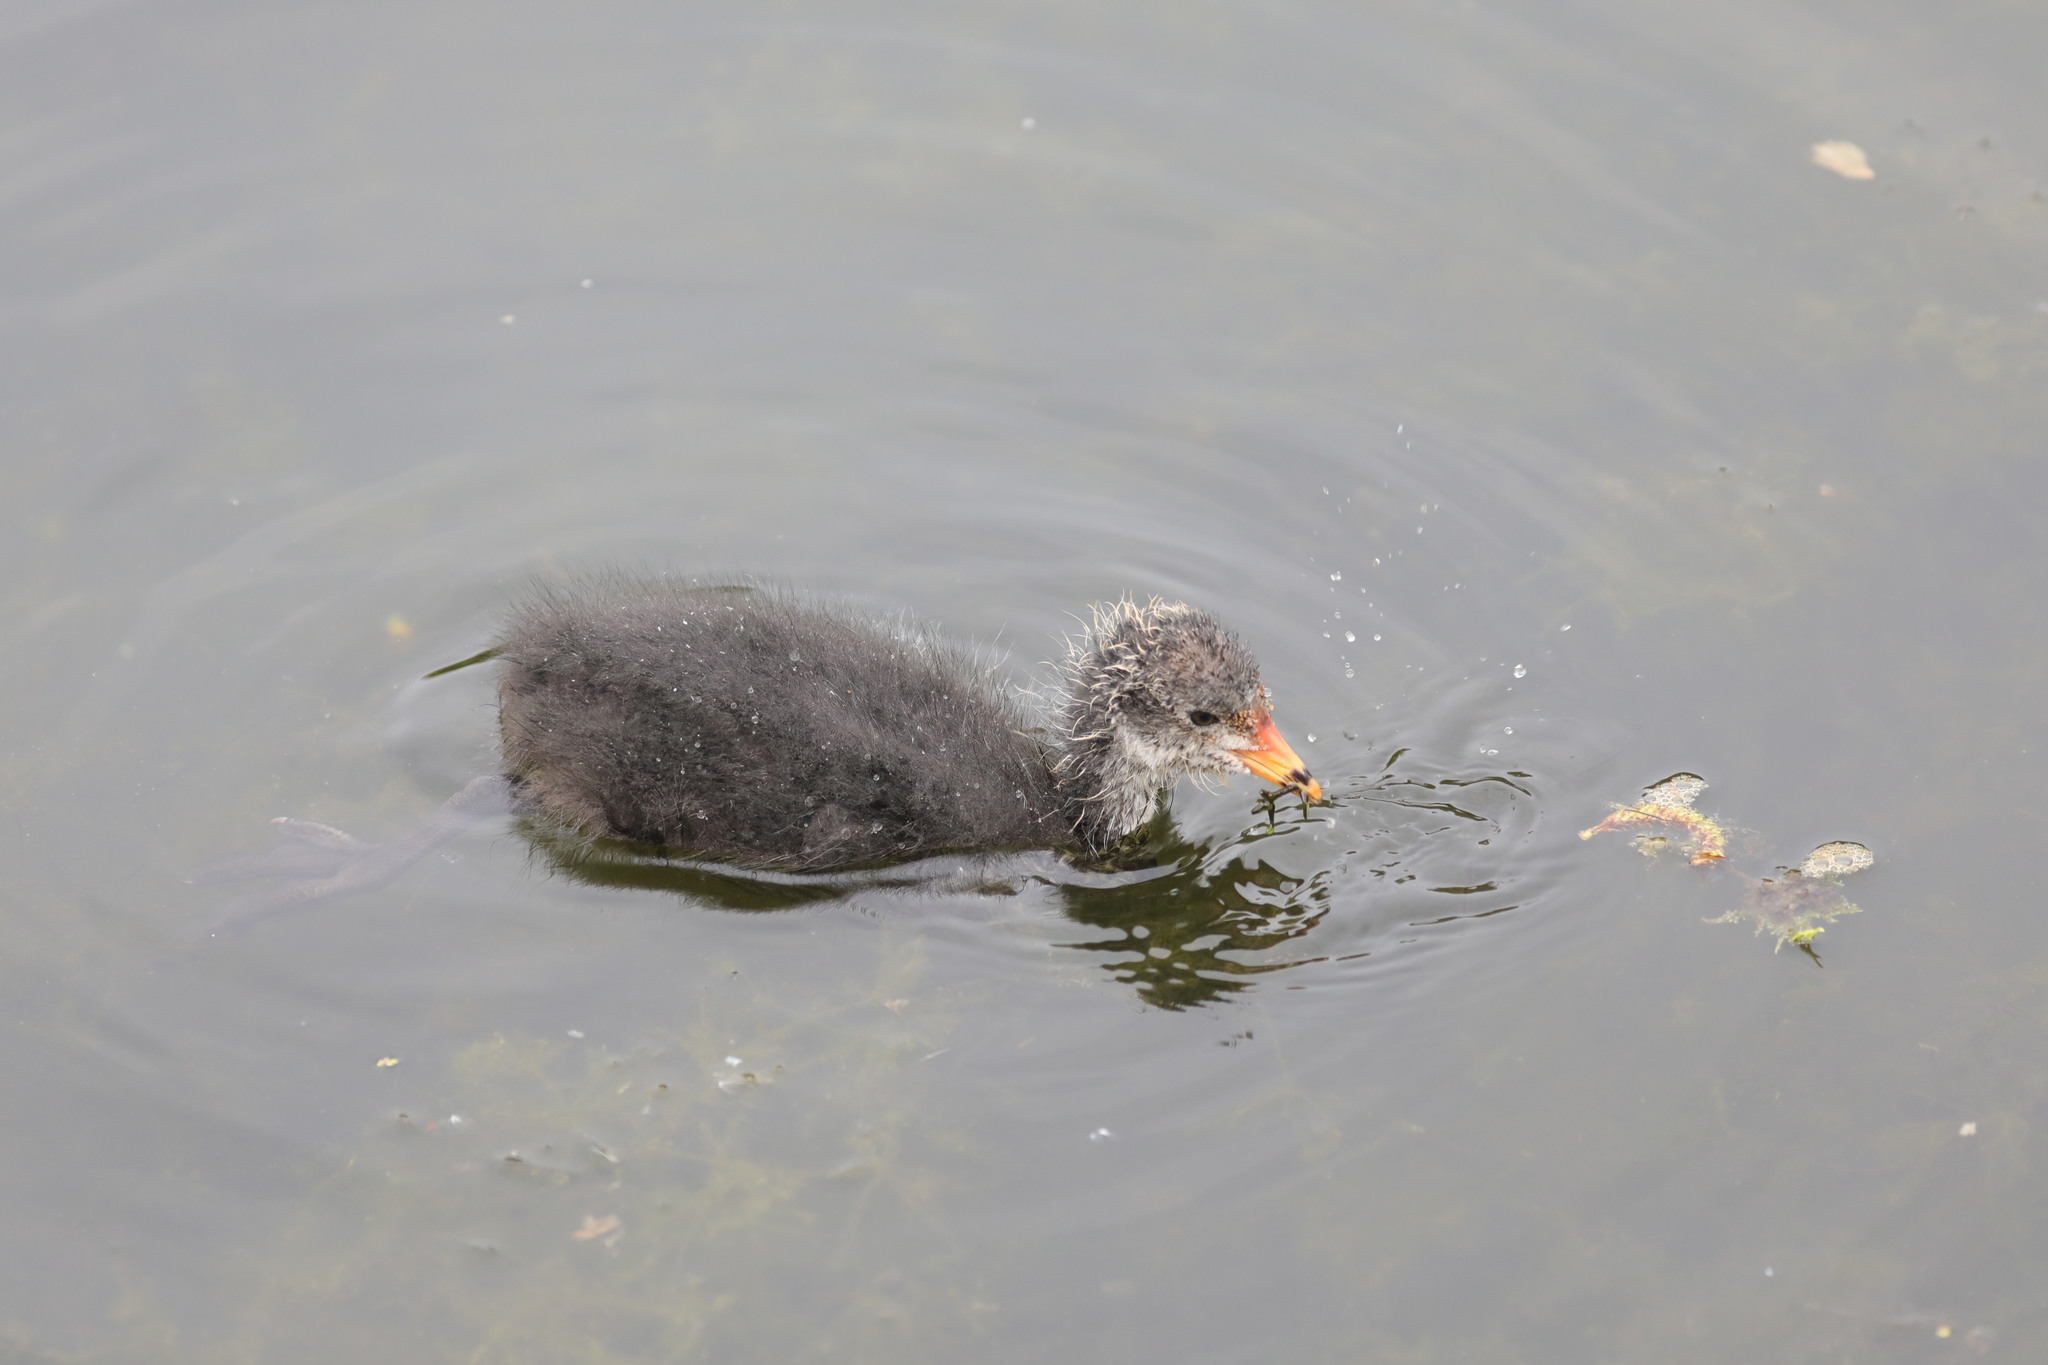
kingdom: Animalia
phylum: Chordata
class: Aves
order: Gruiformes
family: Rallidae
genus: Fulica
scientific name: Fulica atra
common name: Eurasian coot
